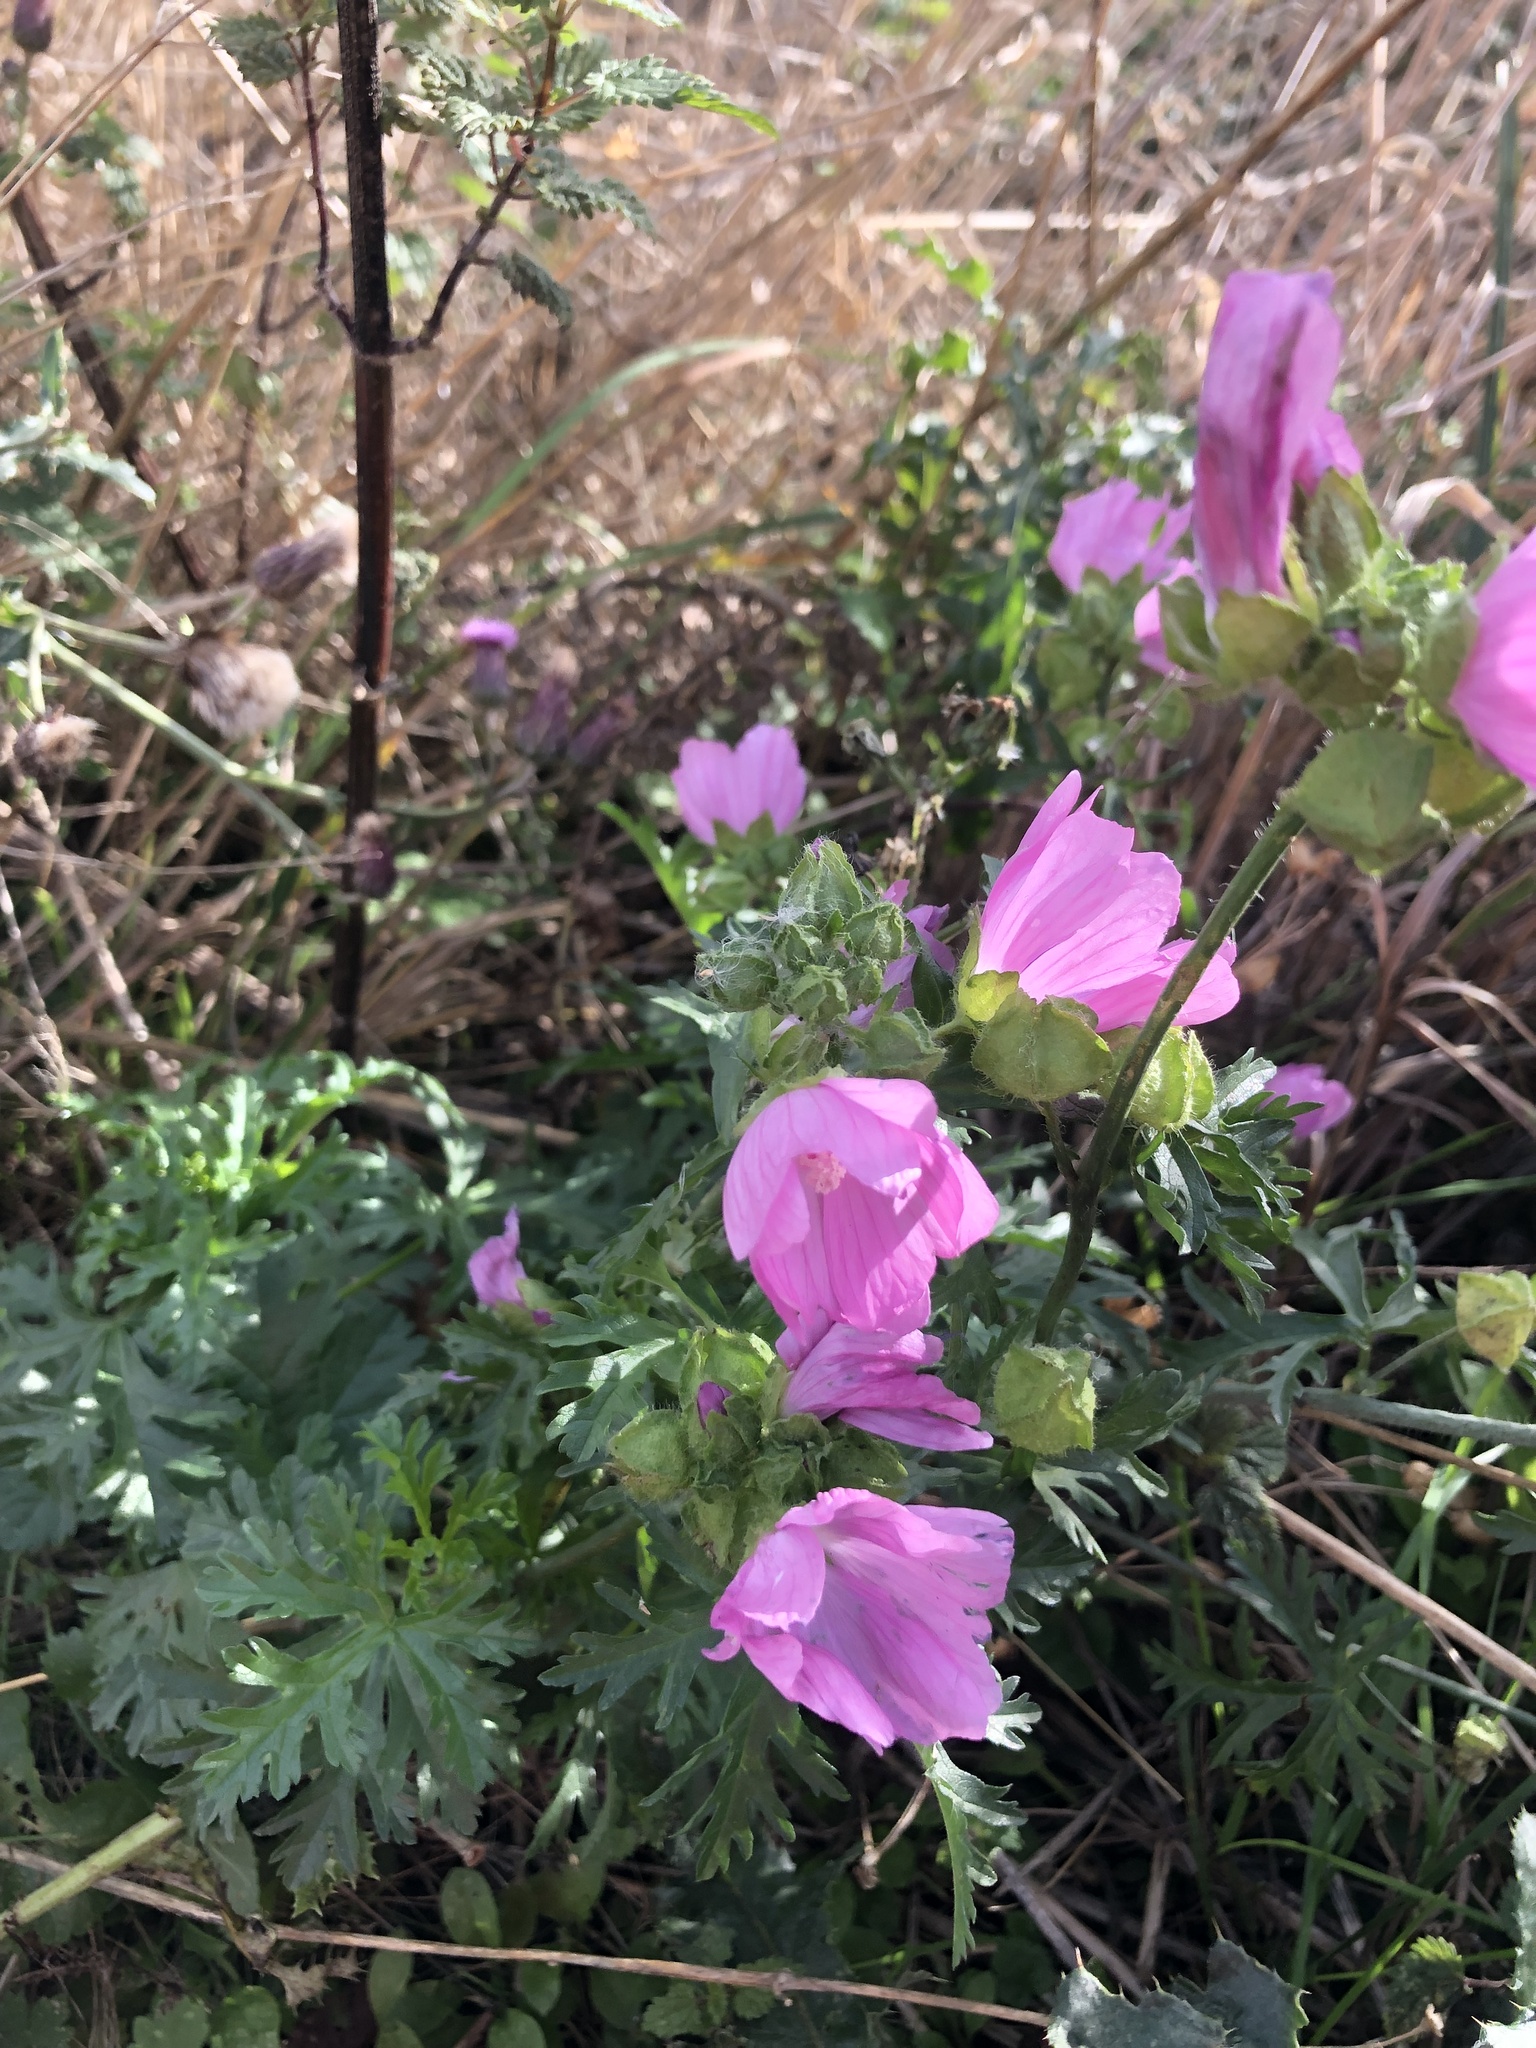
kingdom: Plantae
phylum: Tracheophyta
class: Magnoliopsida
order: Malvales
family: Malvaceae
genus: Malva
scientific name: Malva moschata
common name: Musk mallow
